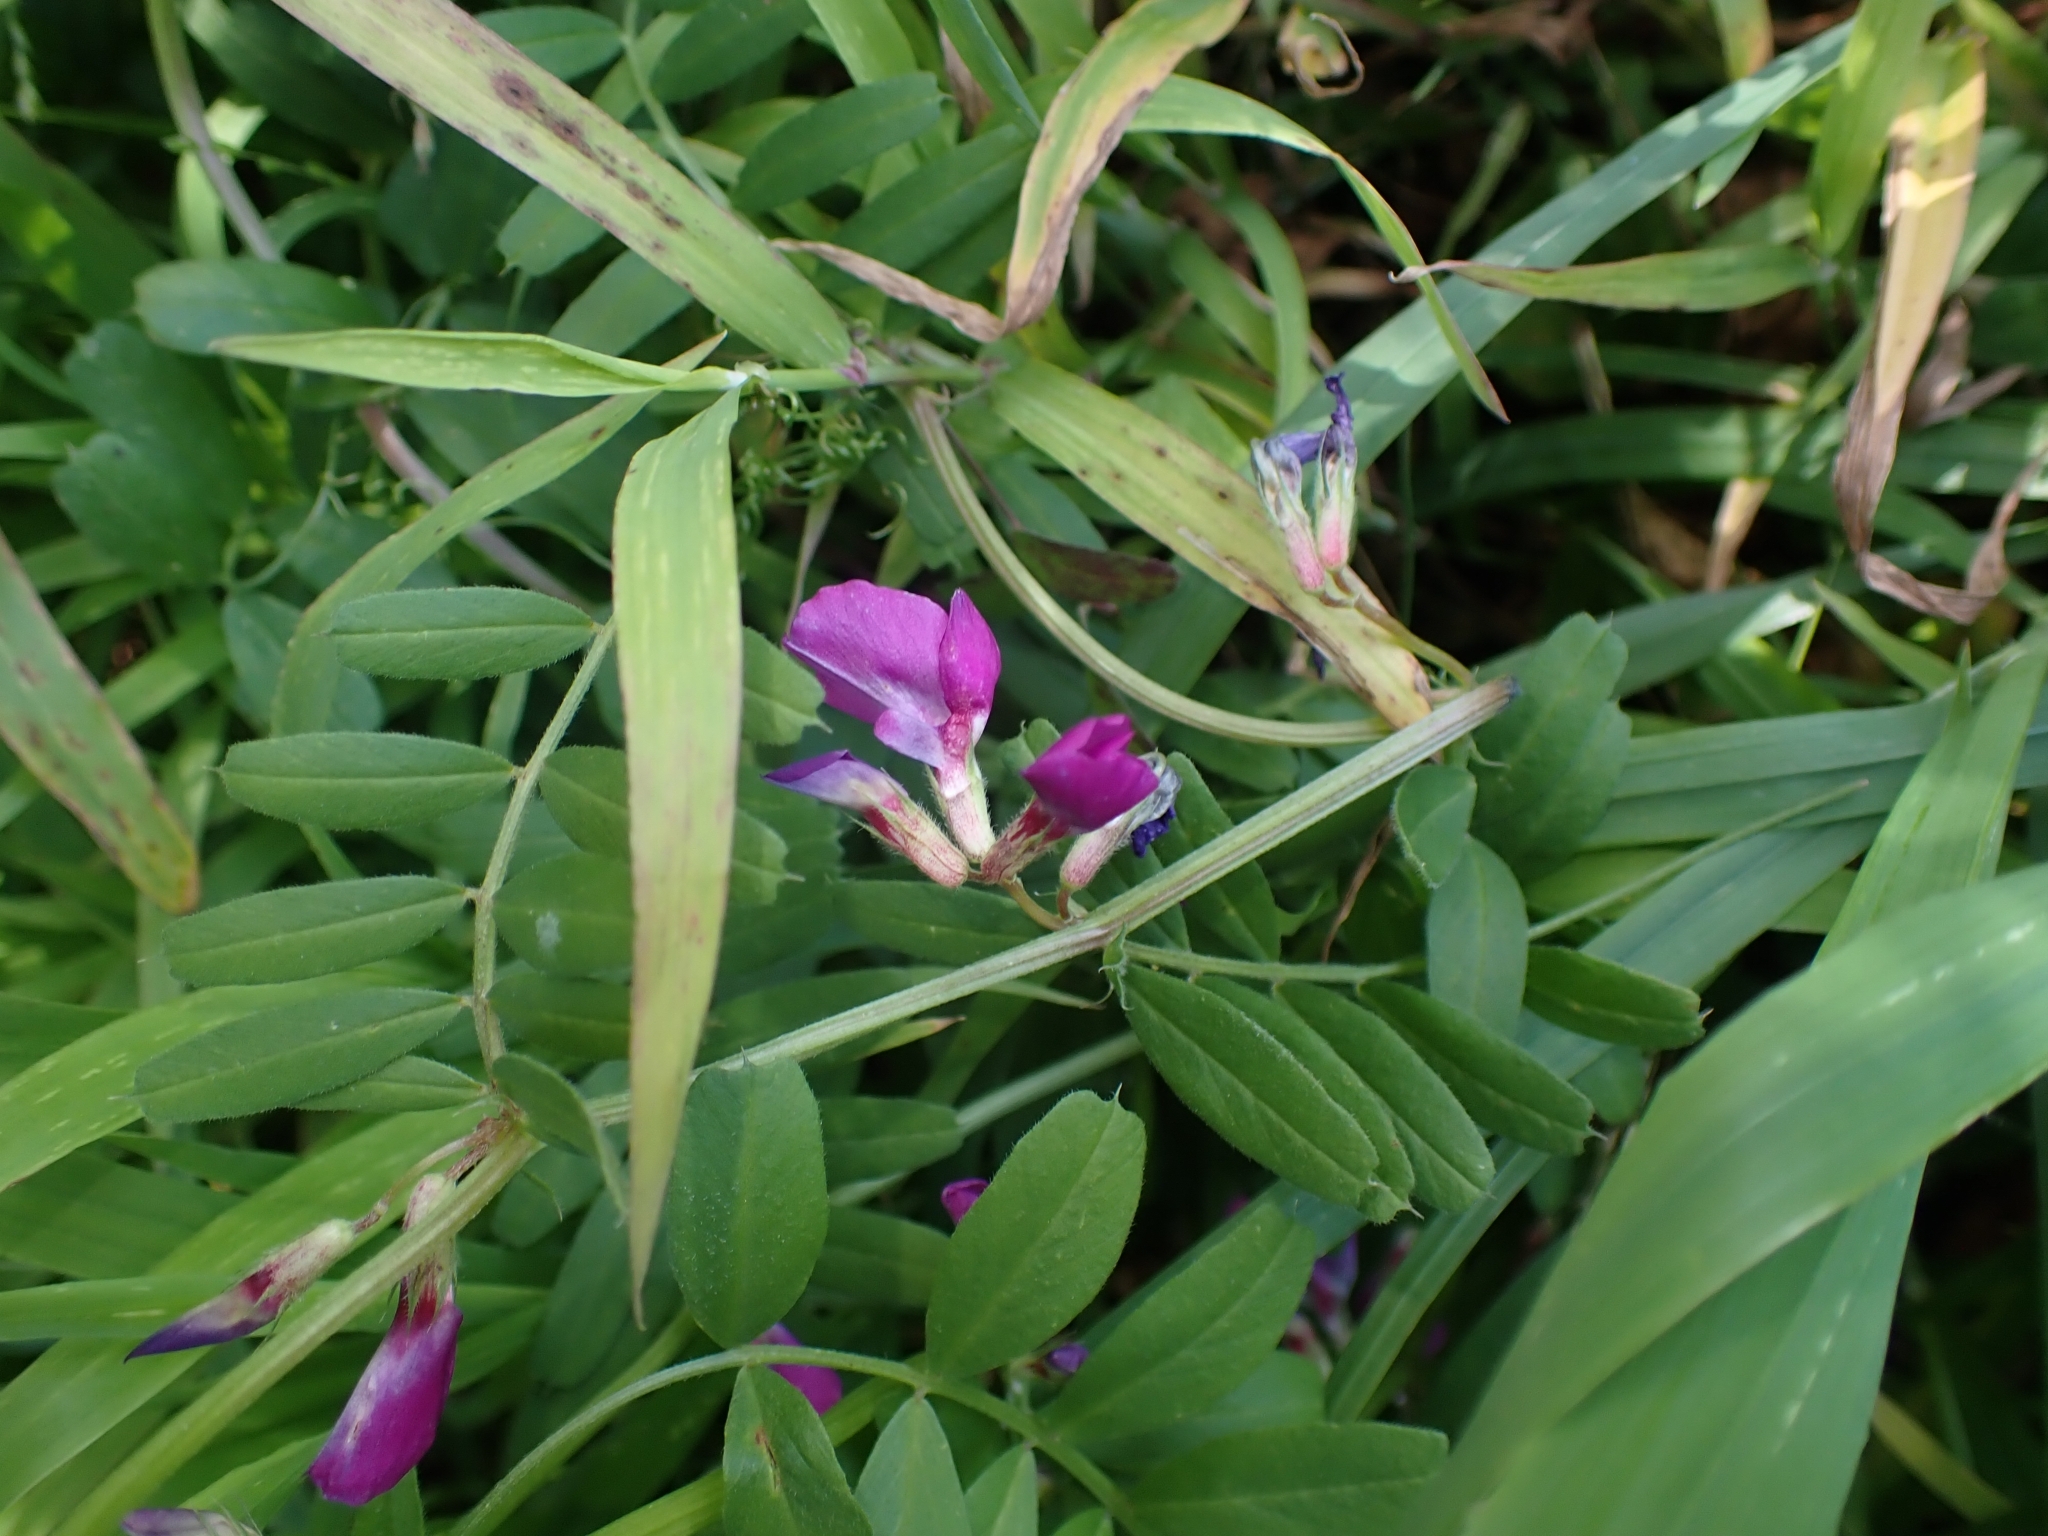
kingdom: Plantae
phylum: Tracheophyta
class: Magnoliopsida
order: Fabales
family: Fabaceae
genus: Vicia
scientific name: Vicia sativa
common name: Garden vetch
